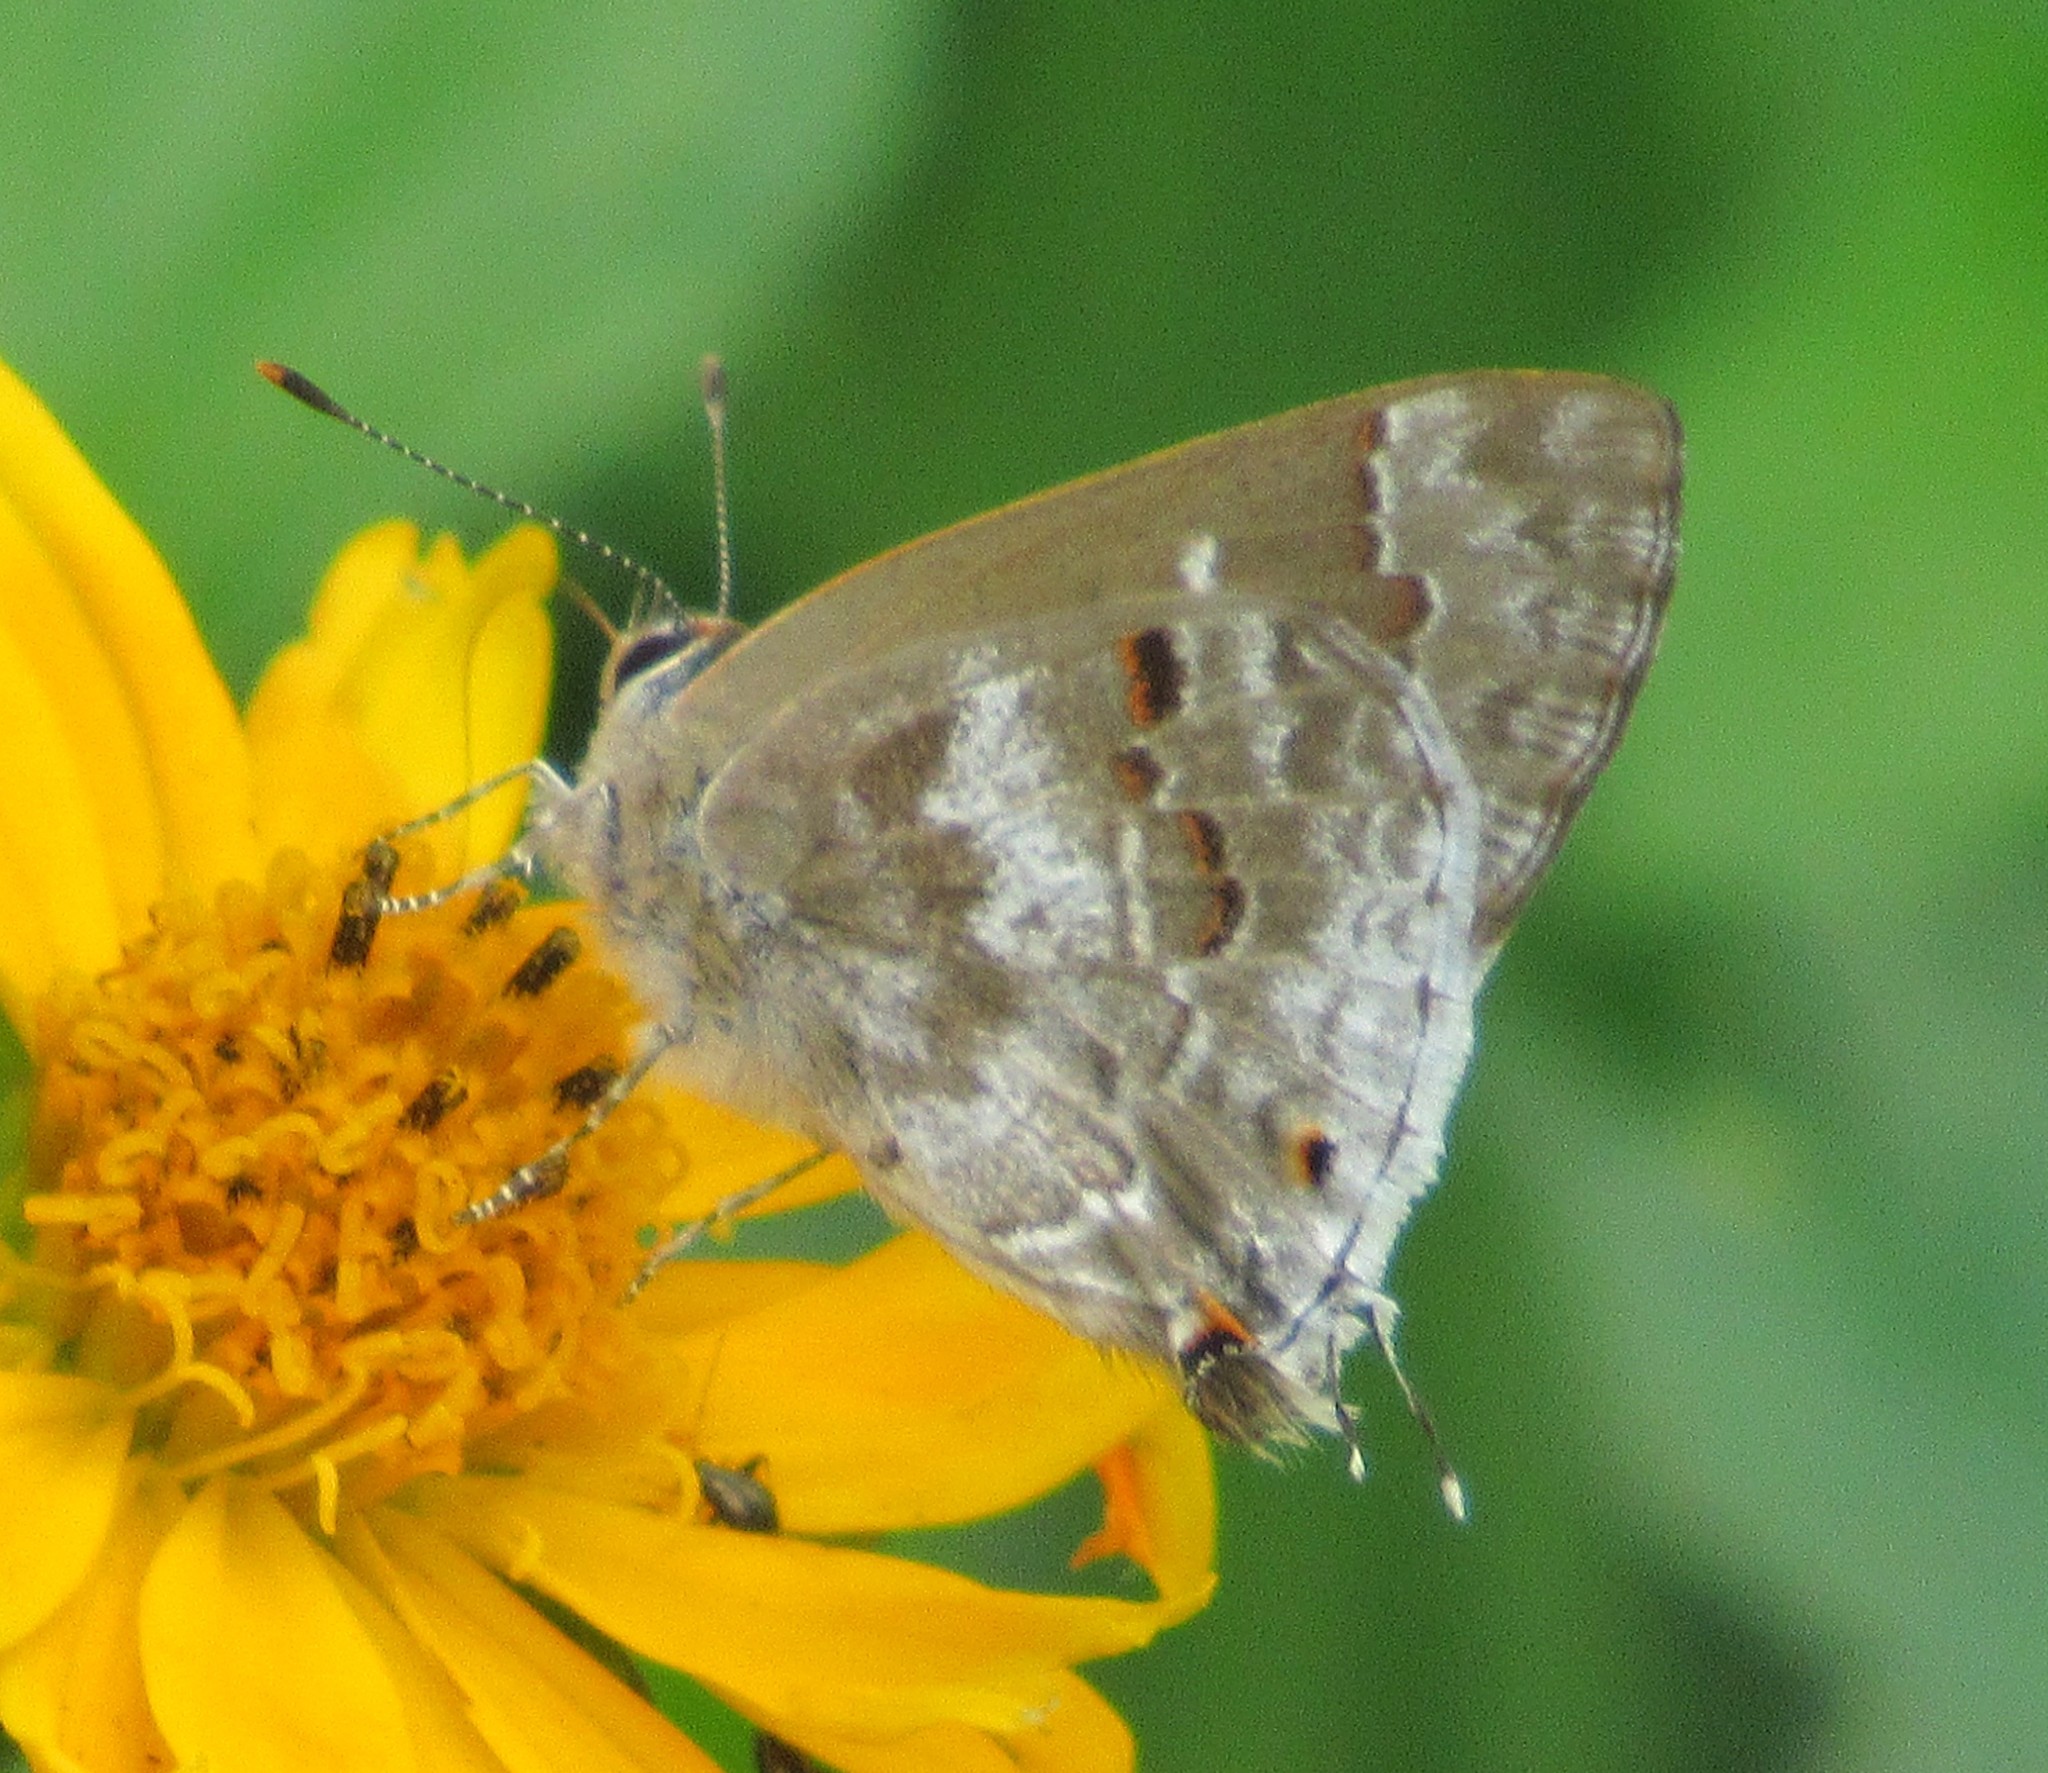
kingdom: Animalia
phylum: Arthropoda
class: Insecta
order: Lepidoptera
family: Lycaenidae
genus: Strymon
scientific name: Strymon mulucha
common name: Mottled scrub-hairstreak
